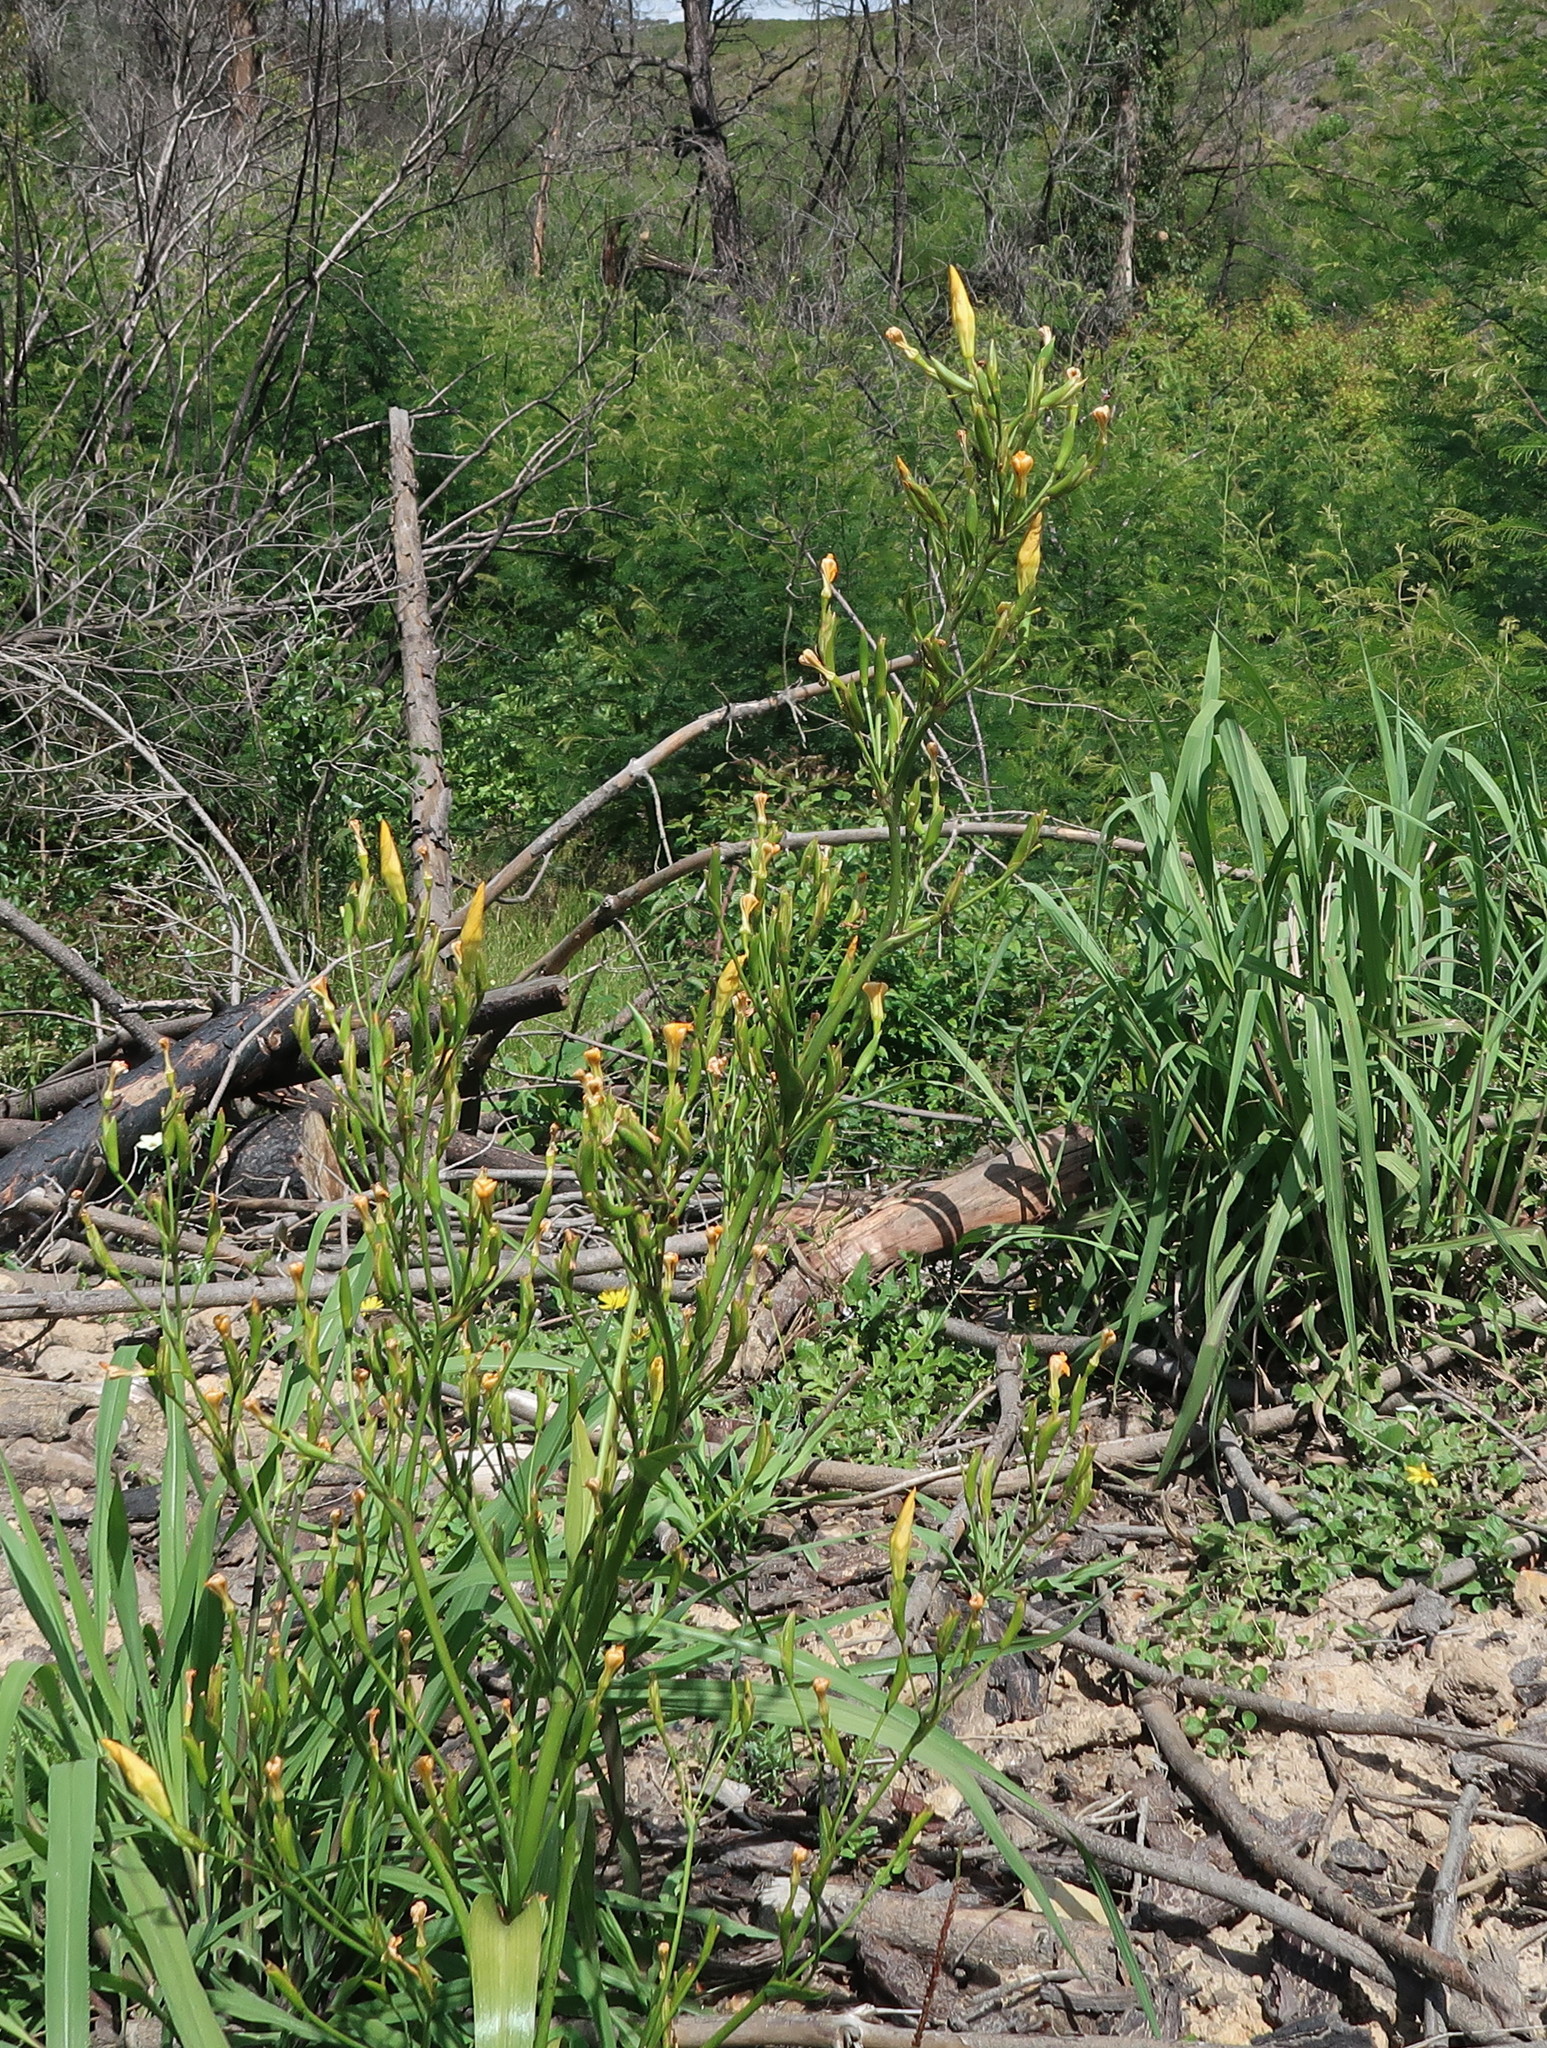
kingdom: Plantae
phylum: Tracheophyta
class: Liliopsida
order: Asparagales
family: Iridaceae
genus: Moraea
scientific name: Moraea ramosissima
